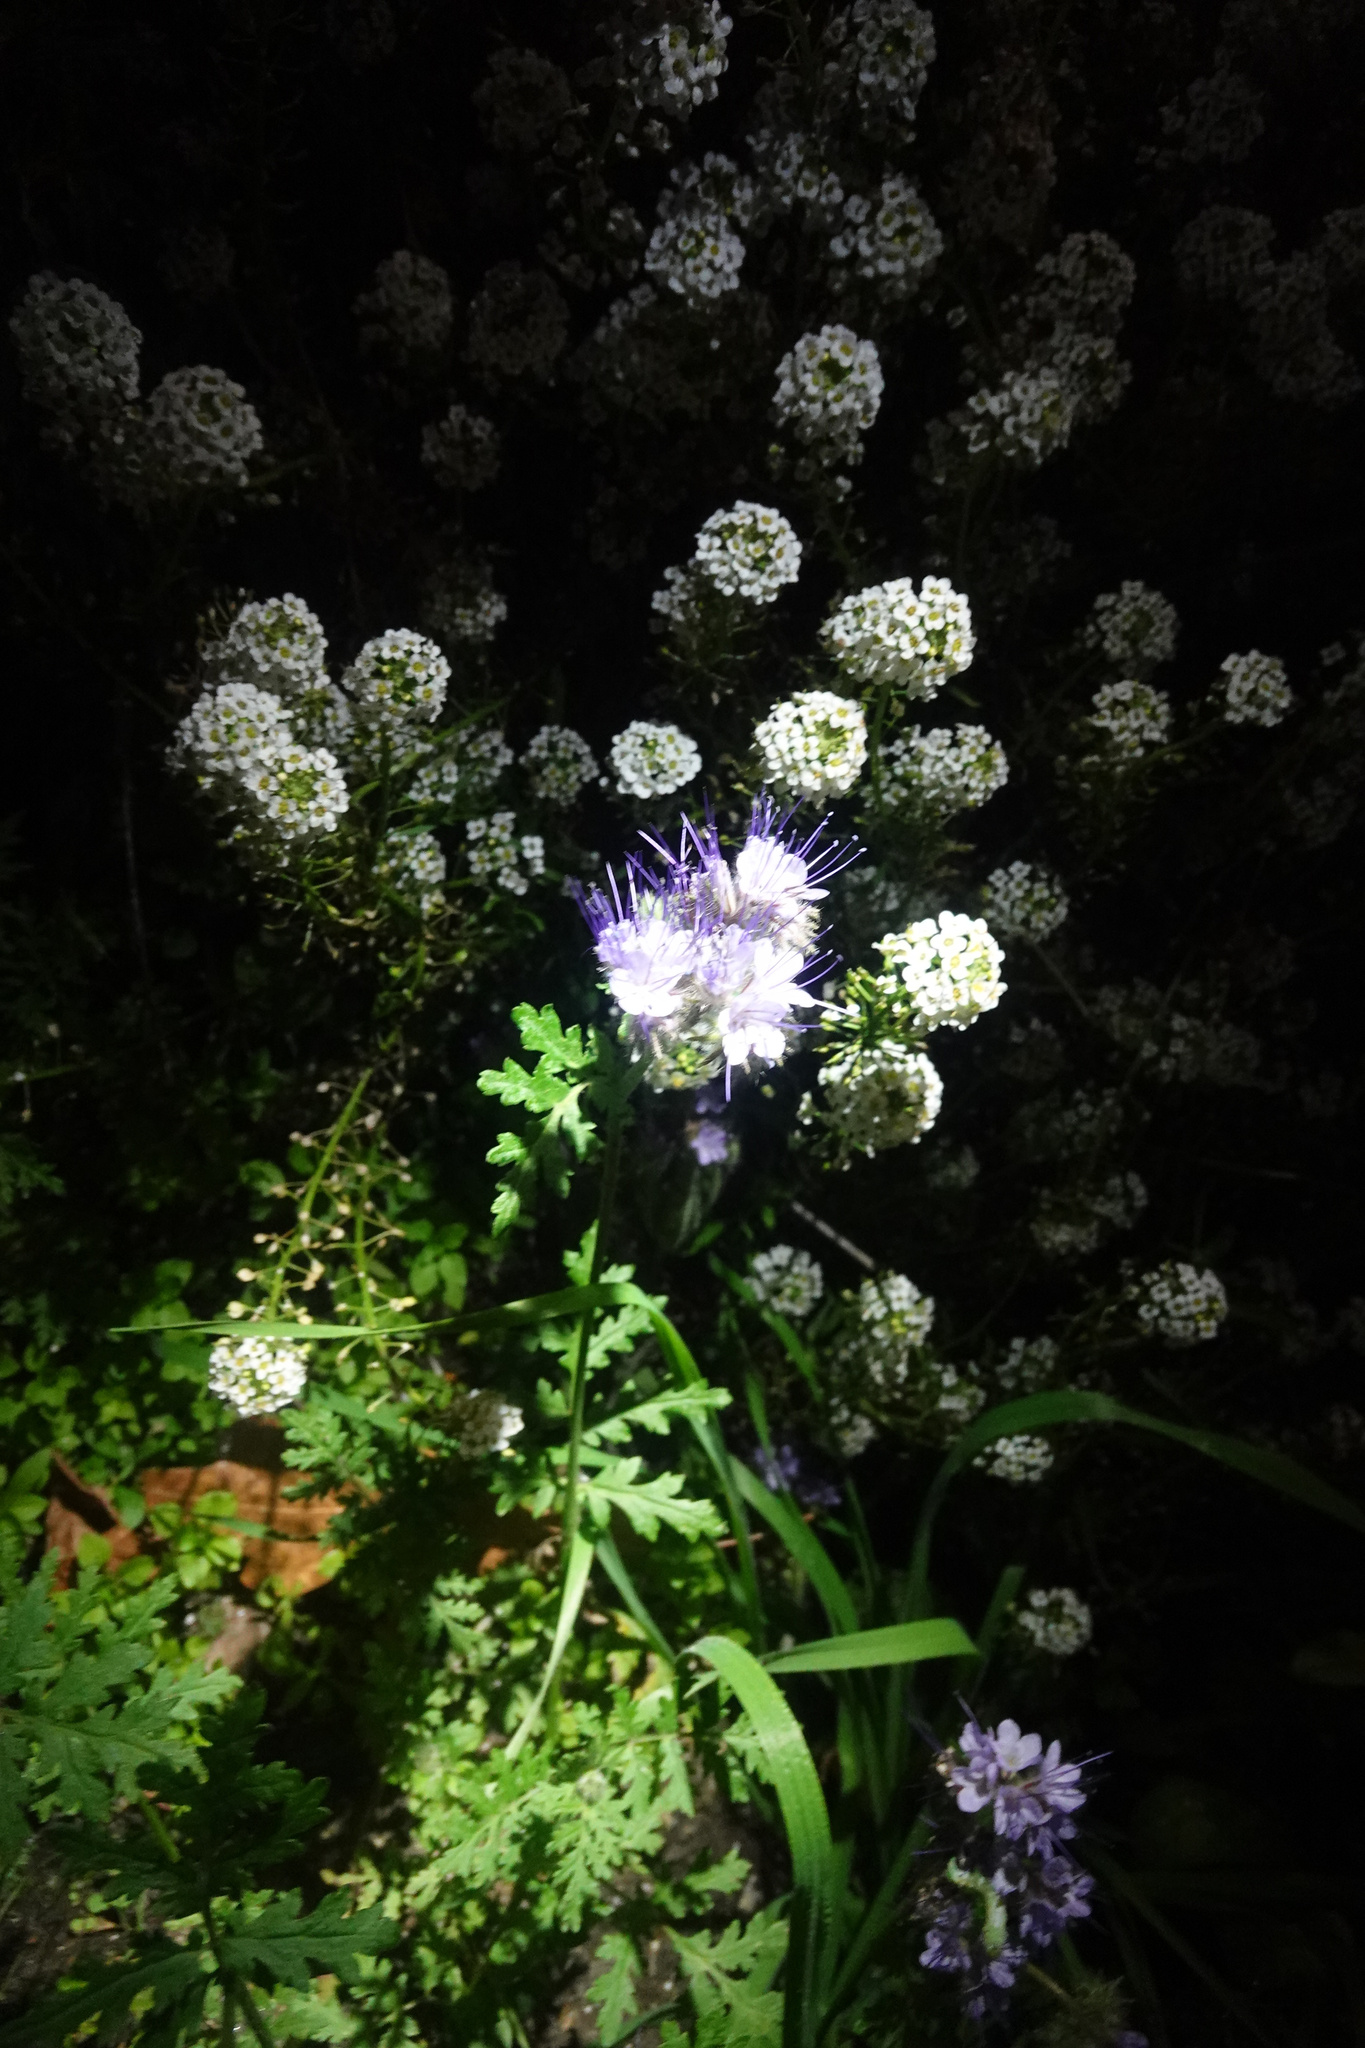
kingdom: Plantae
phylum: Tracheophyta
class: Magnoliopsida
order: Boraginales
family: Hydrophyllaceae
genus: Phacelia
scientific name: Phacelia tanacetifolia
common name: Phacelia
